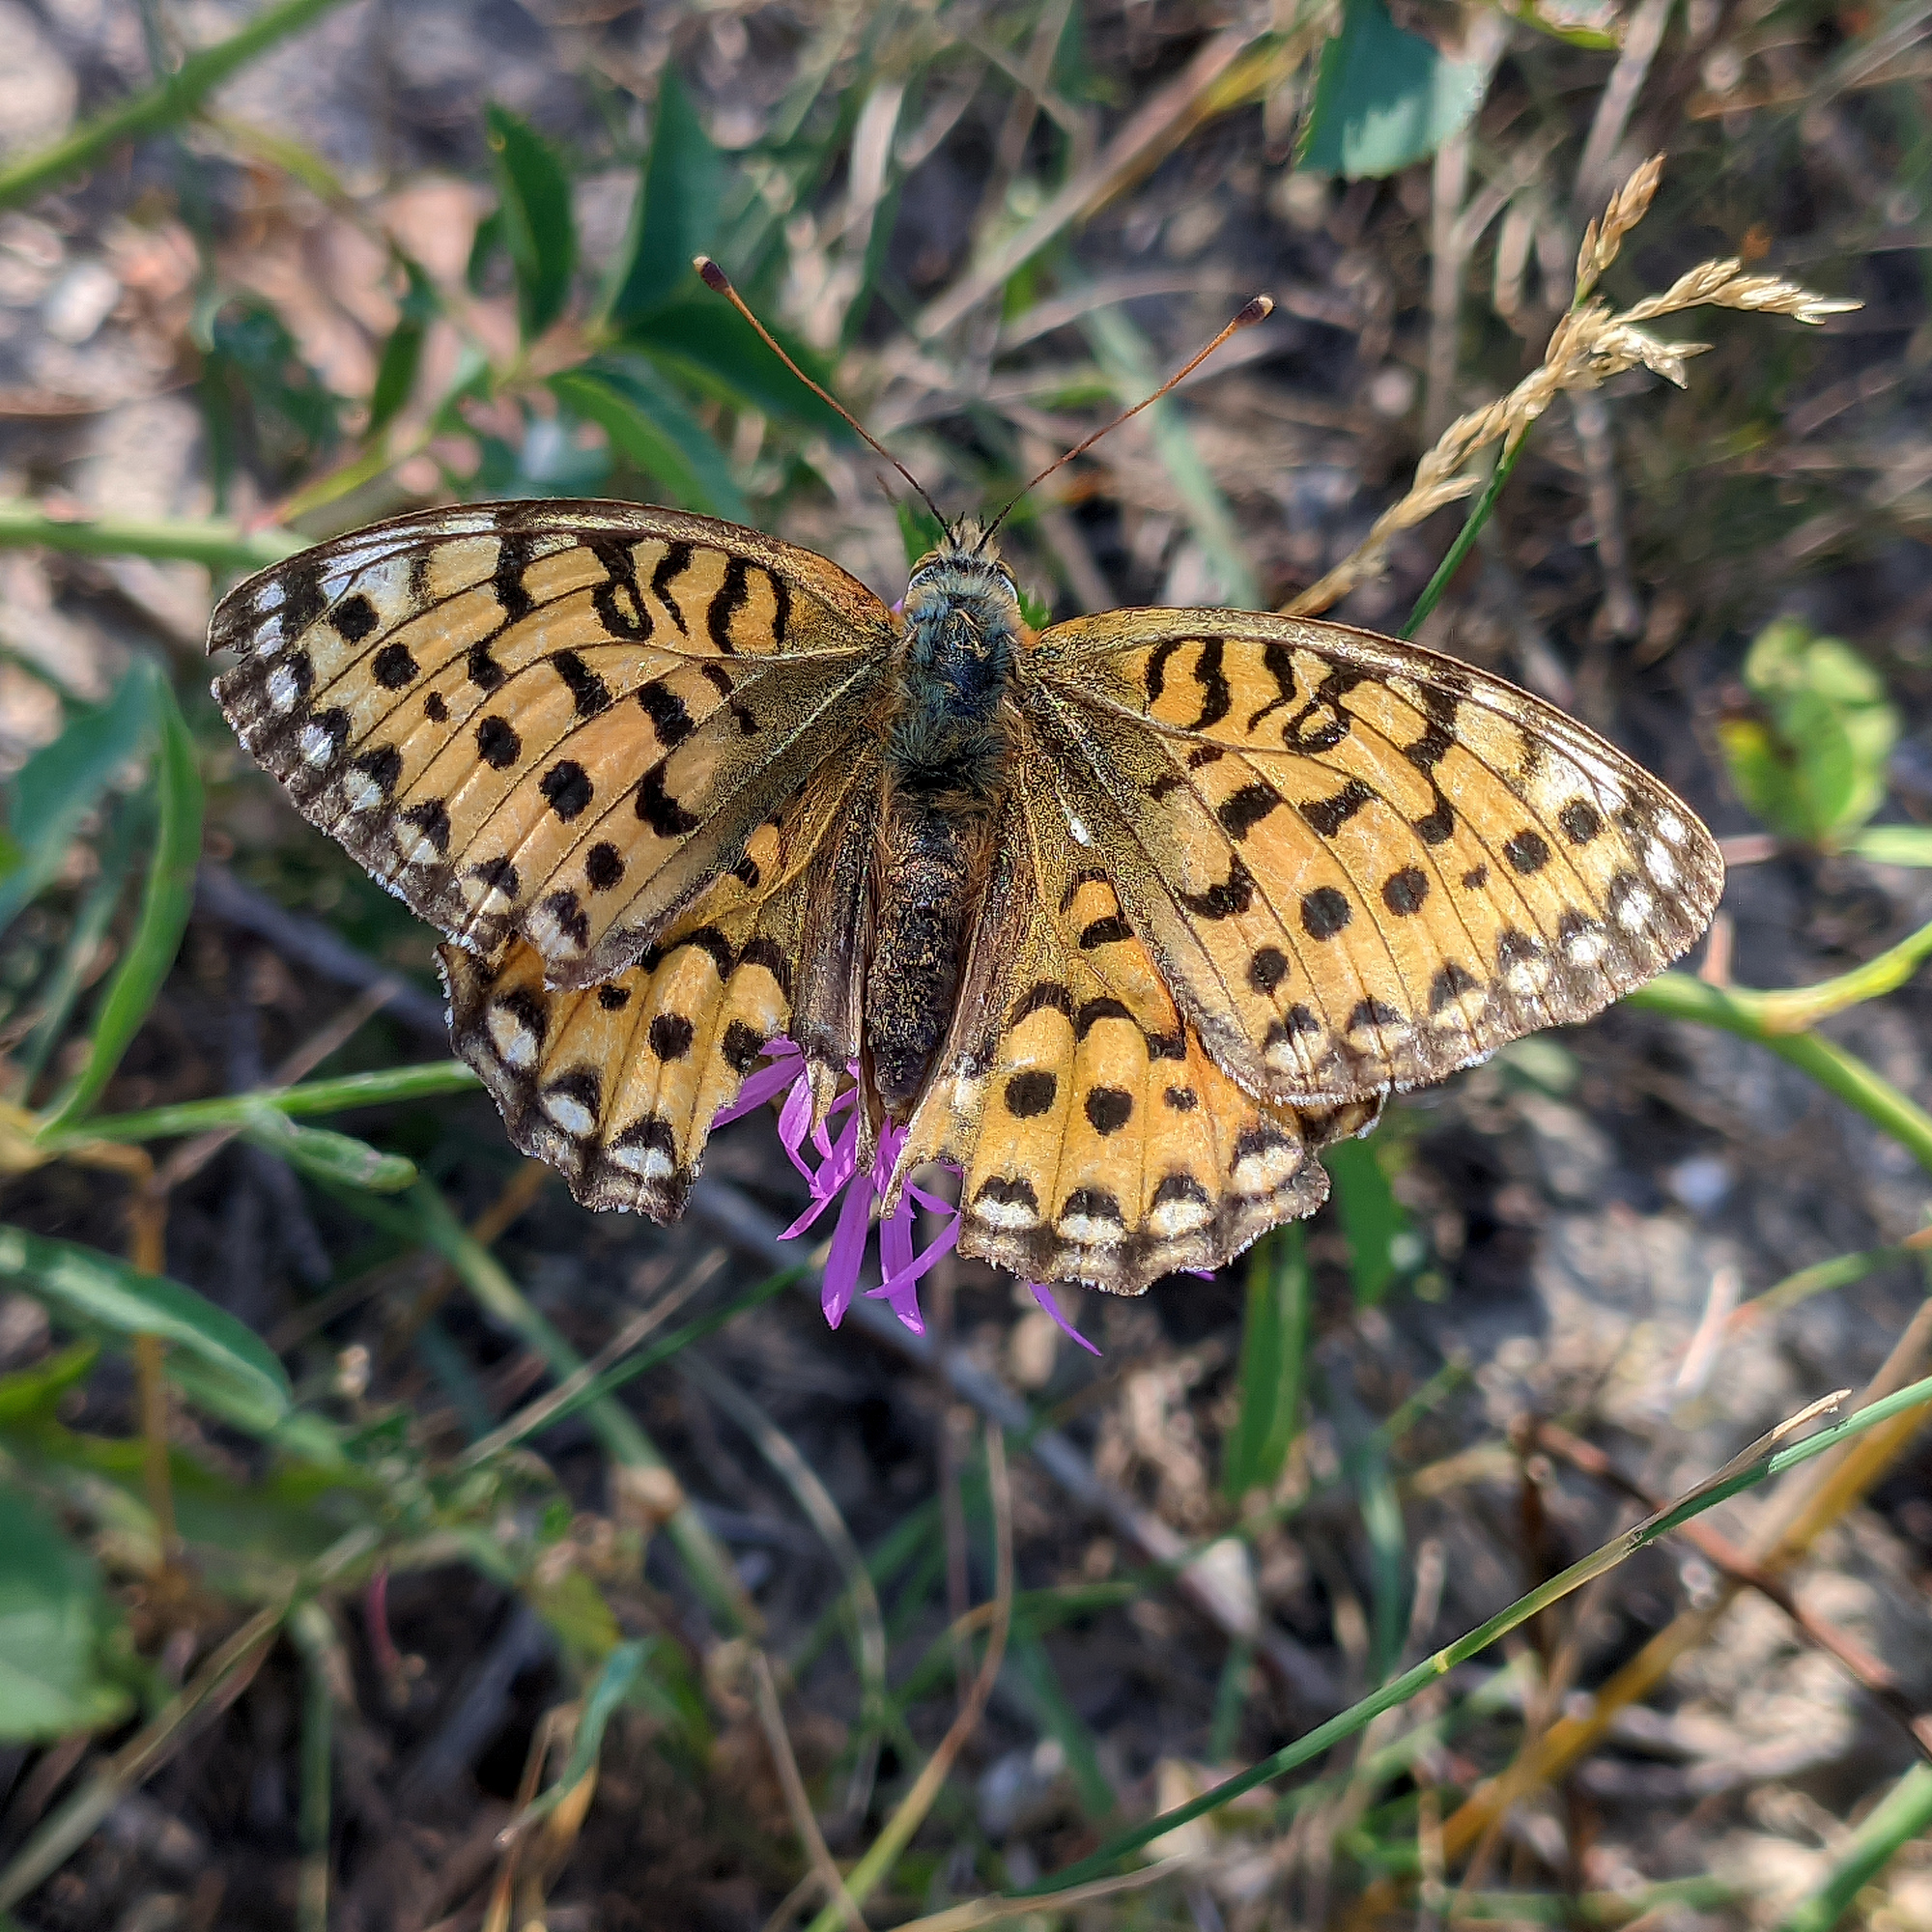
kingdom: Animalia
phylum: Arthropoda
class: Insecta
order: Lepidoptera
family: Nymphalidae
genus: Speyeria
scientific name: Speyeria aglaja
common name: Dark green fritillary
